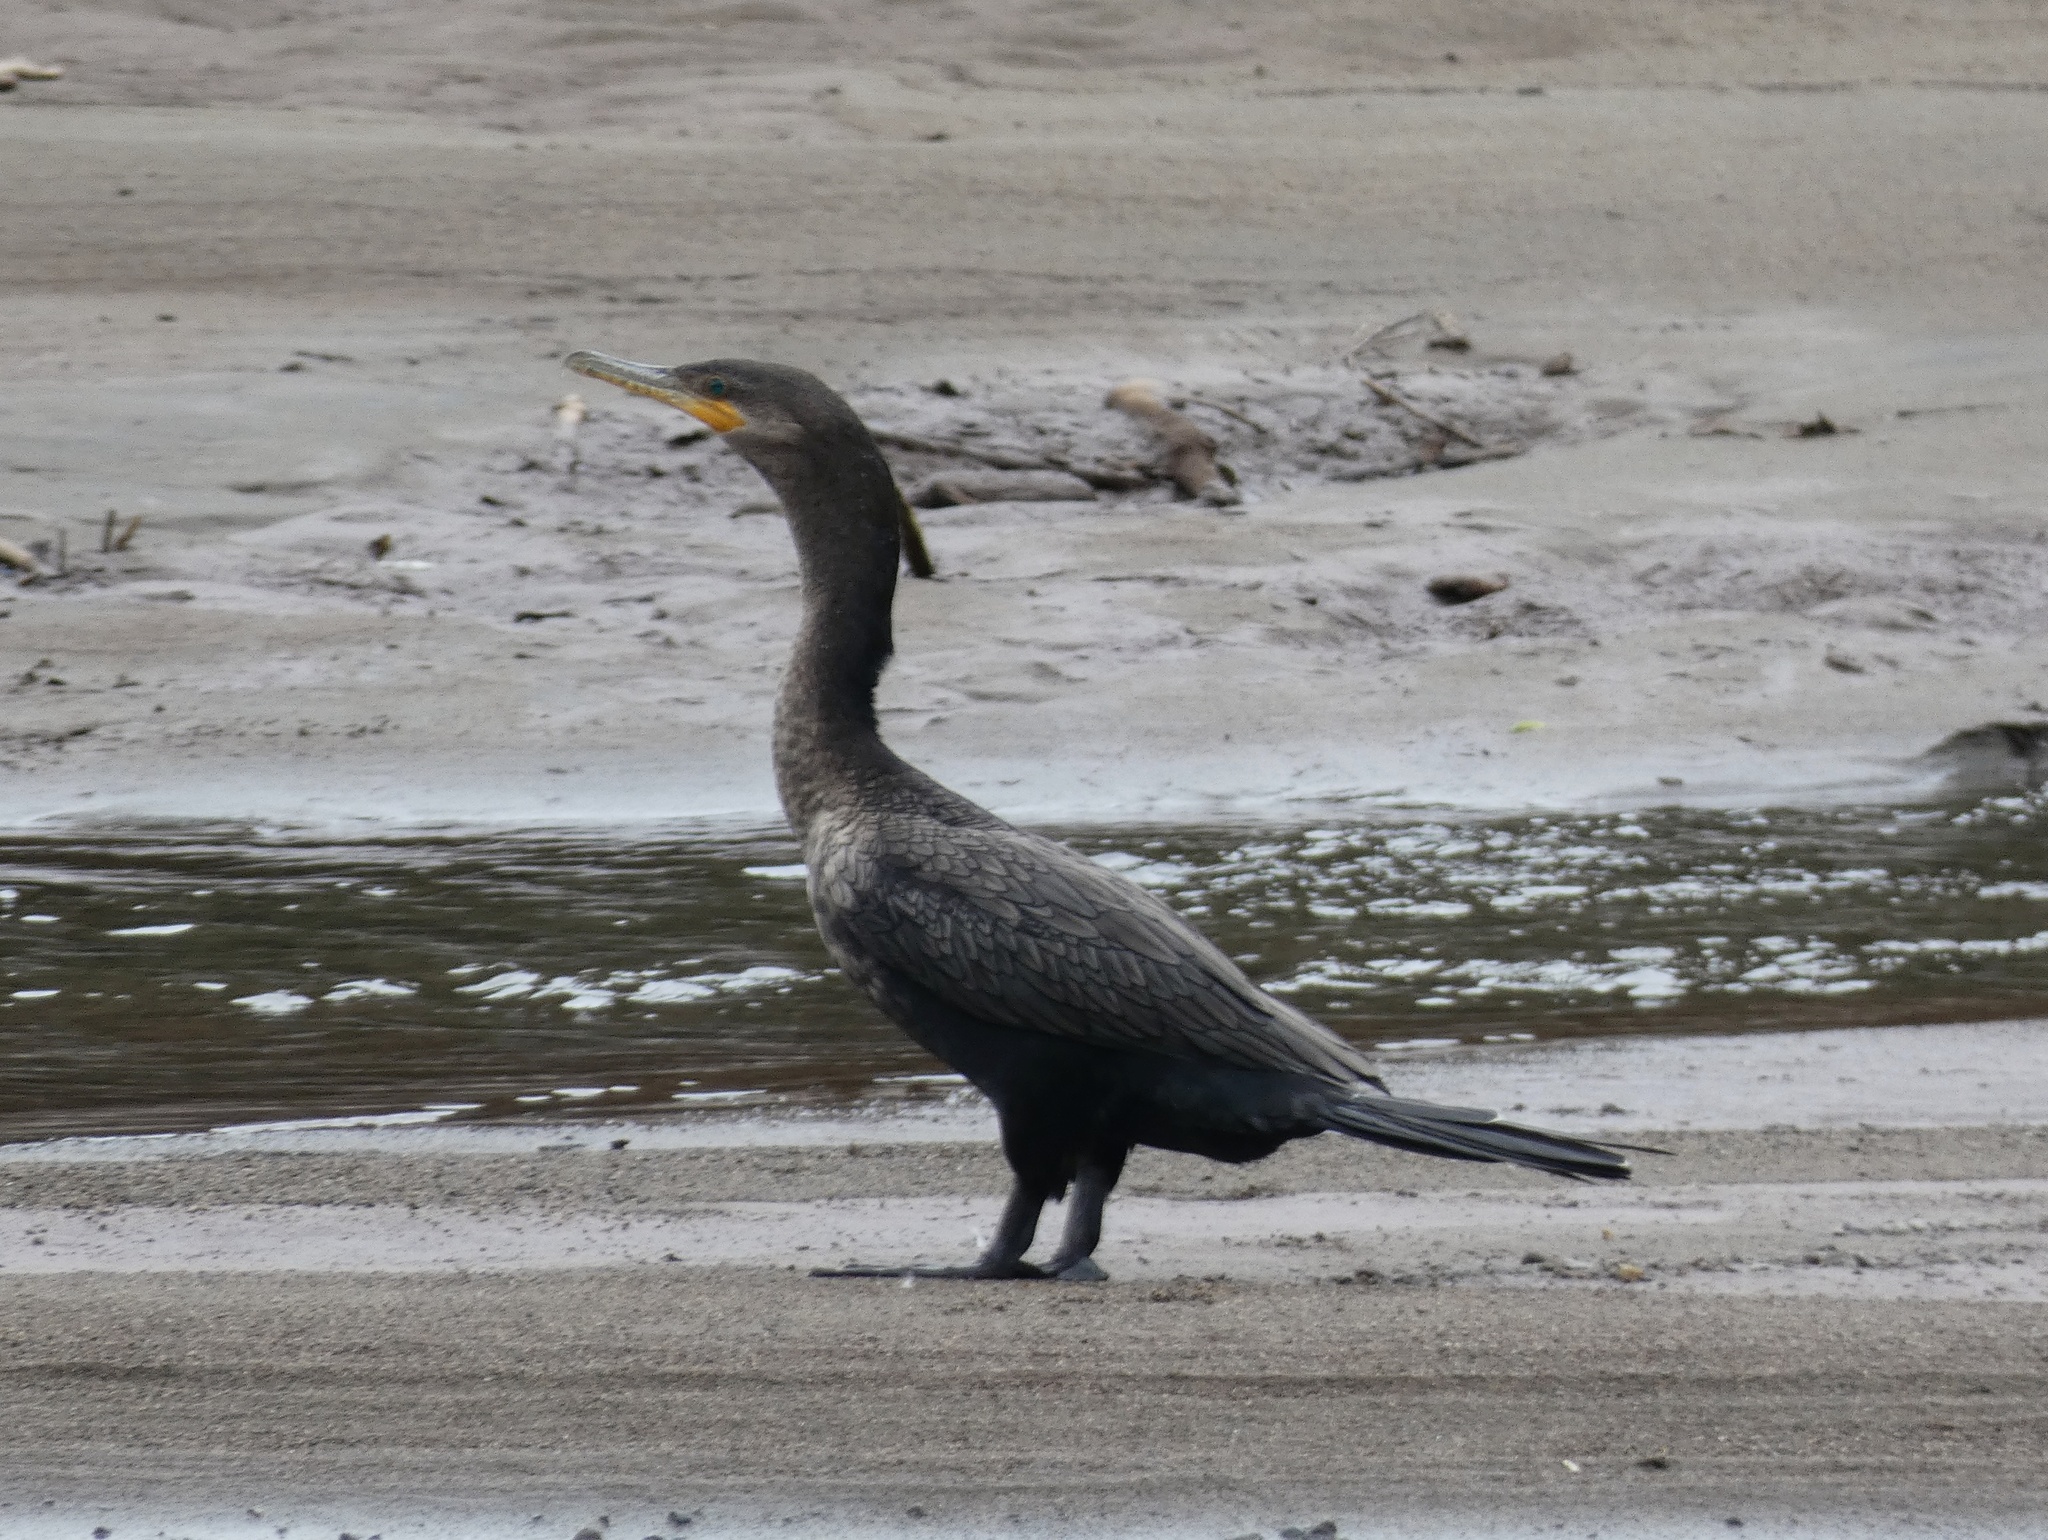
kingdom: Animalia
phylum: Chordata
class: Aves
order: Suliformes
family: Phalacrocoracidae
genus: Phalacrocorax
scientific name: Phalacrocorax brasilianus
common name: Neotropic cormorant
